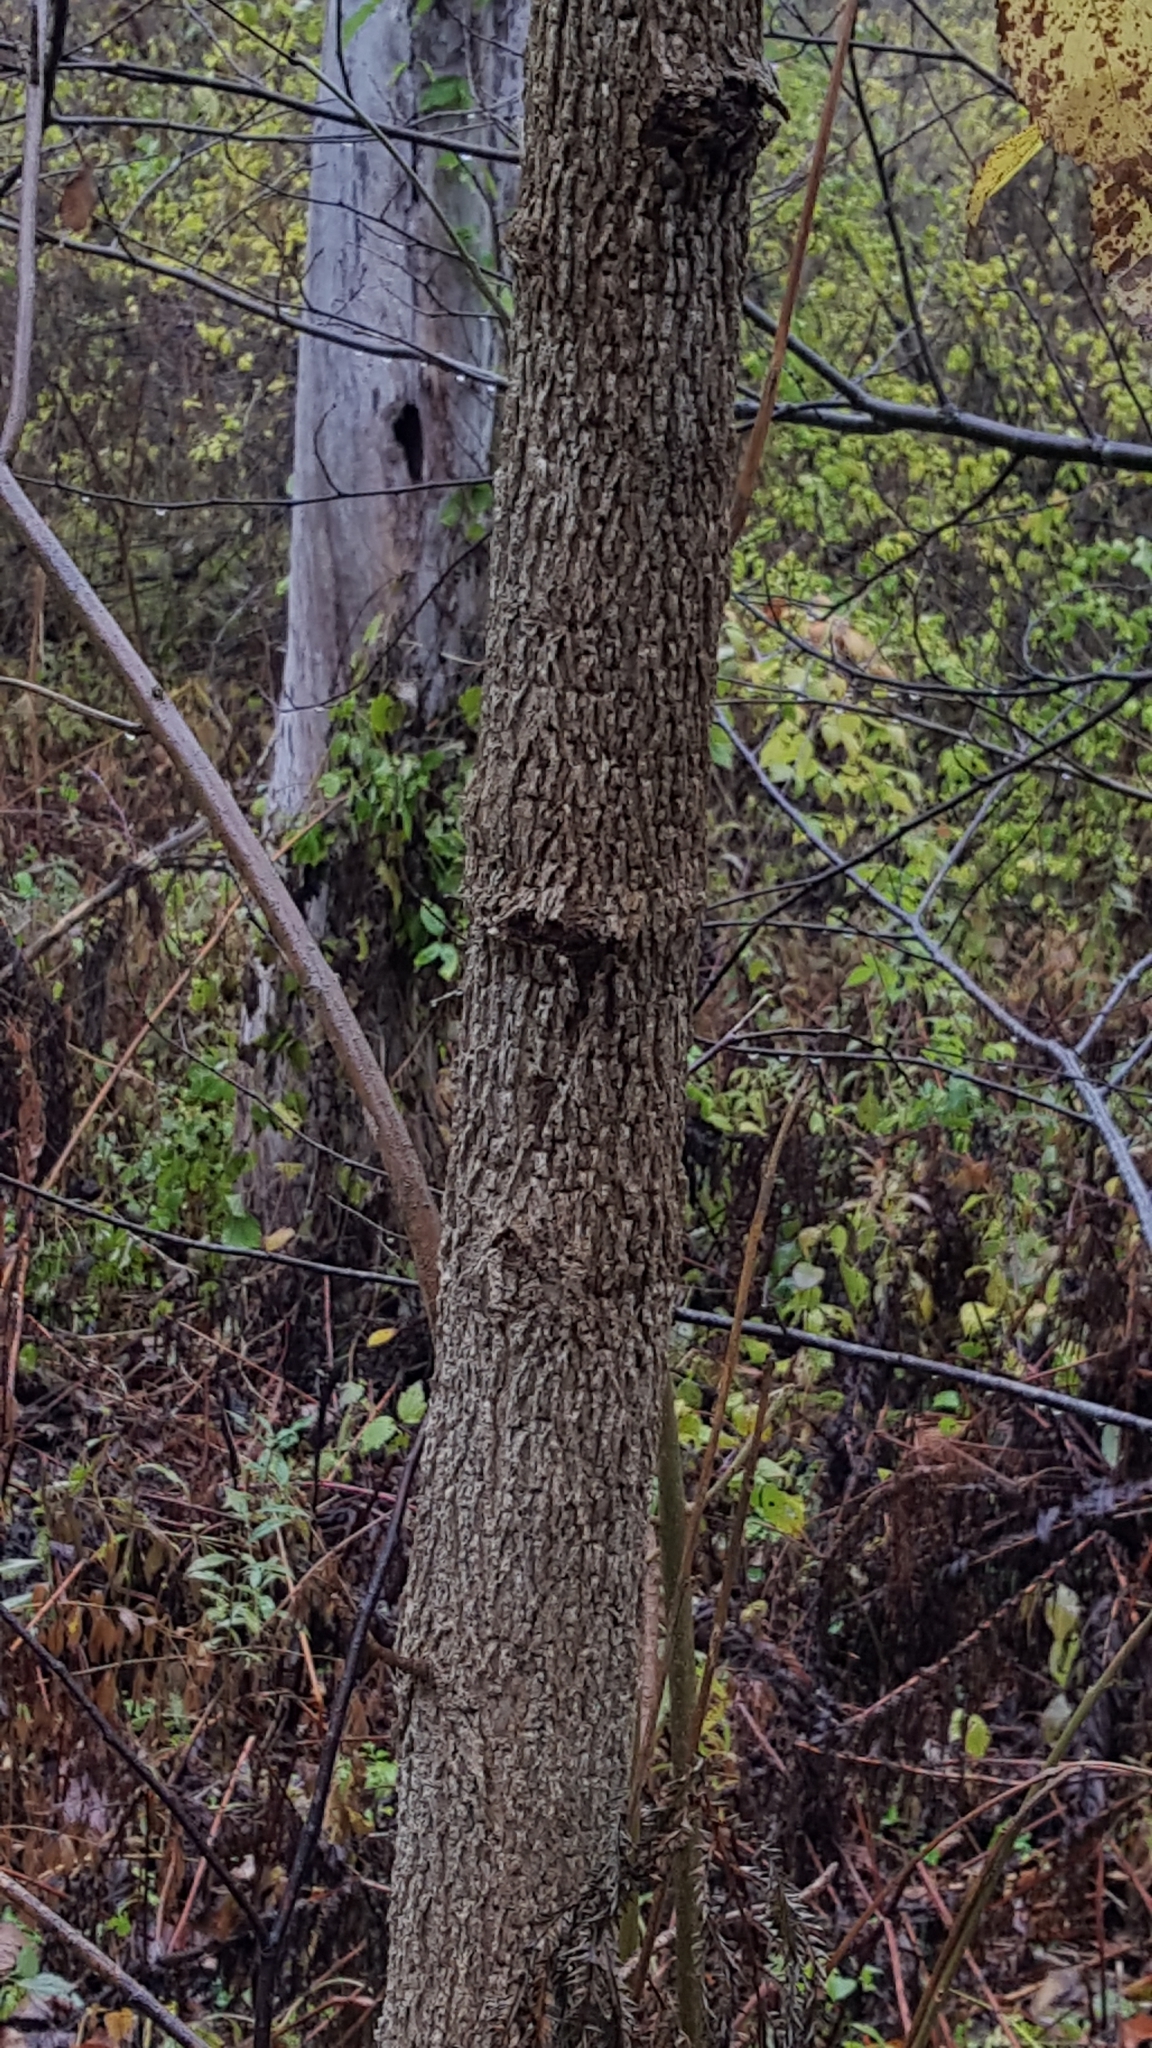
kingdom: Plantae
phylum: Tracheophyta
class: Magnoliopsida
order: Lamiales
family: Oleaceae
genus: Fraxinus
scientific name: Fraxinus nigra
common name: Black ash
